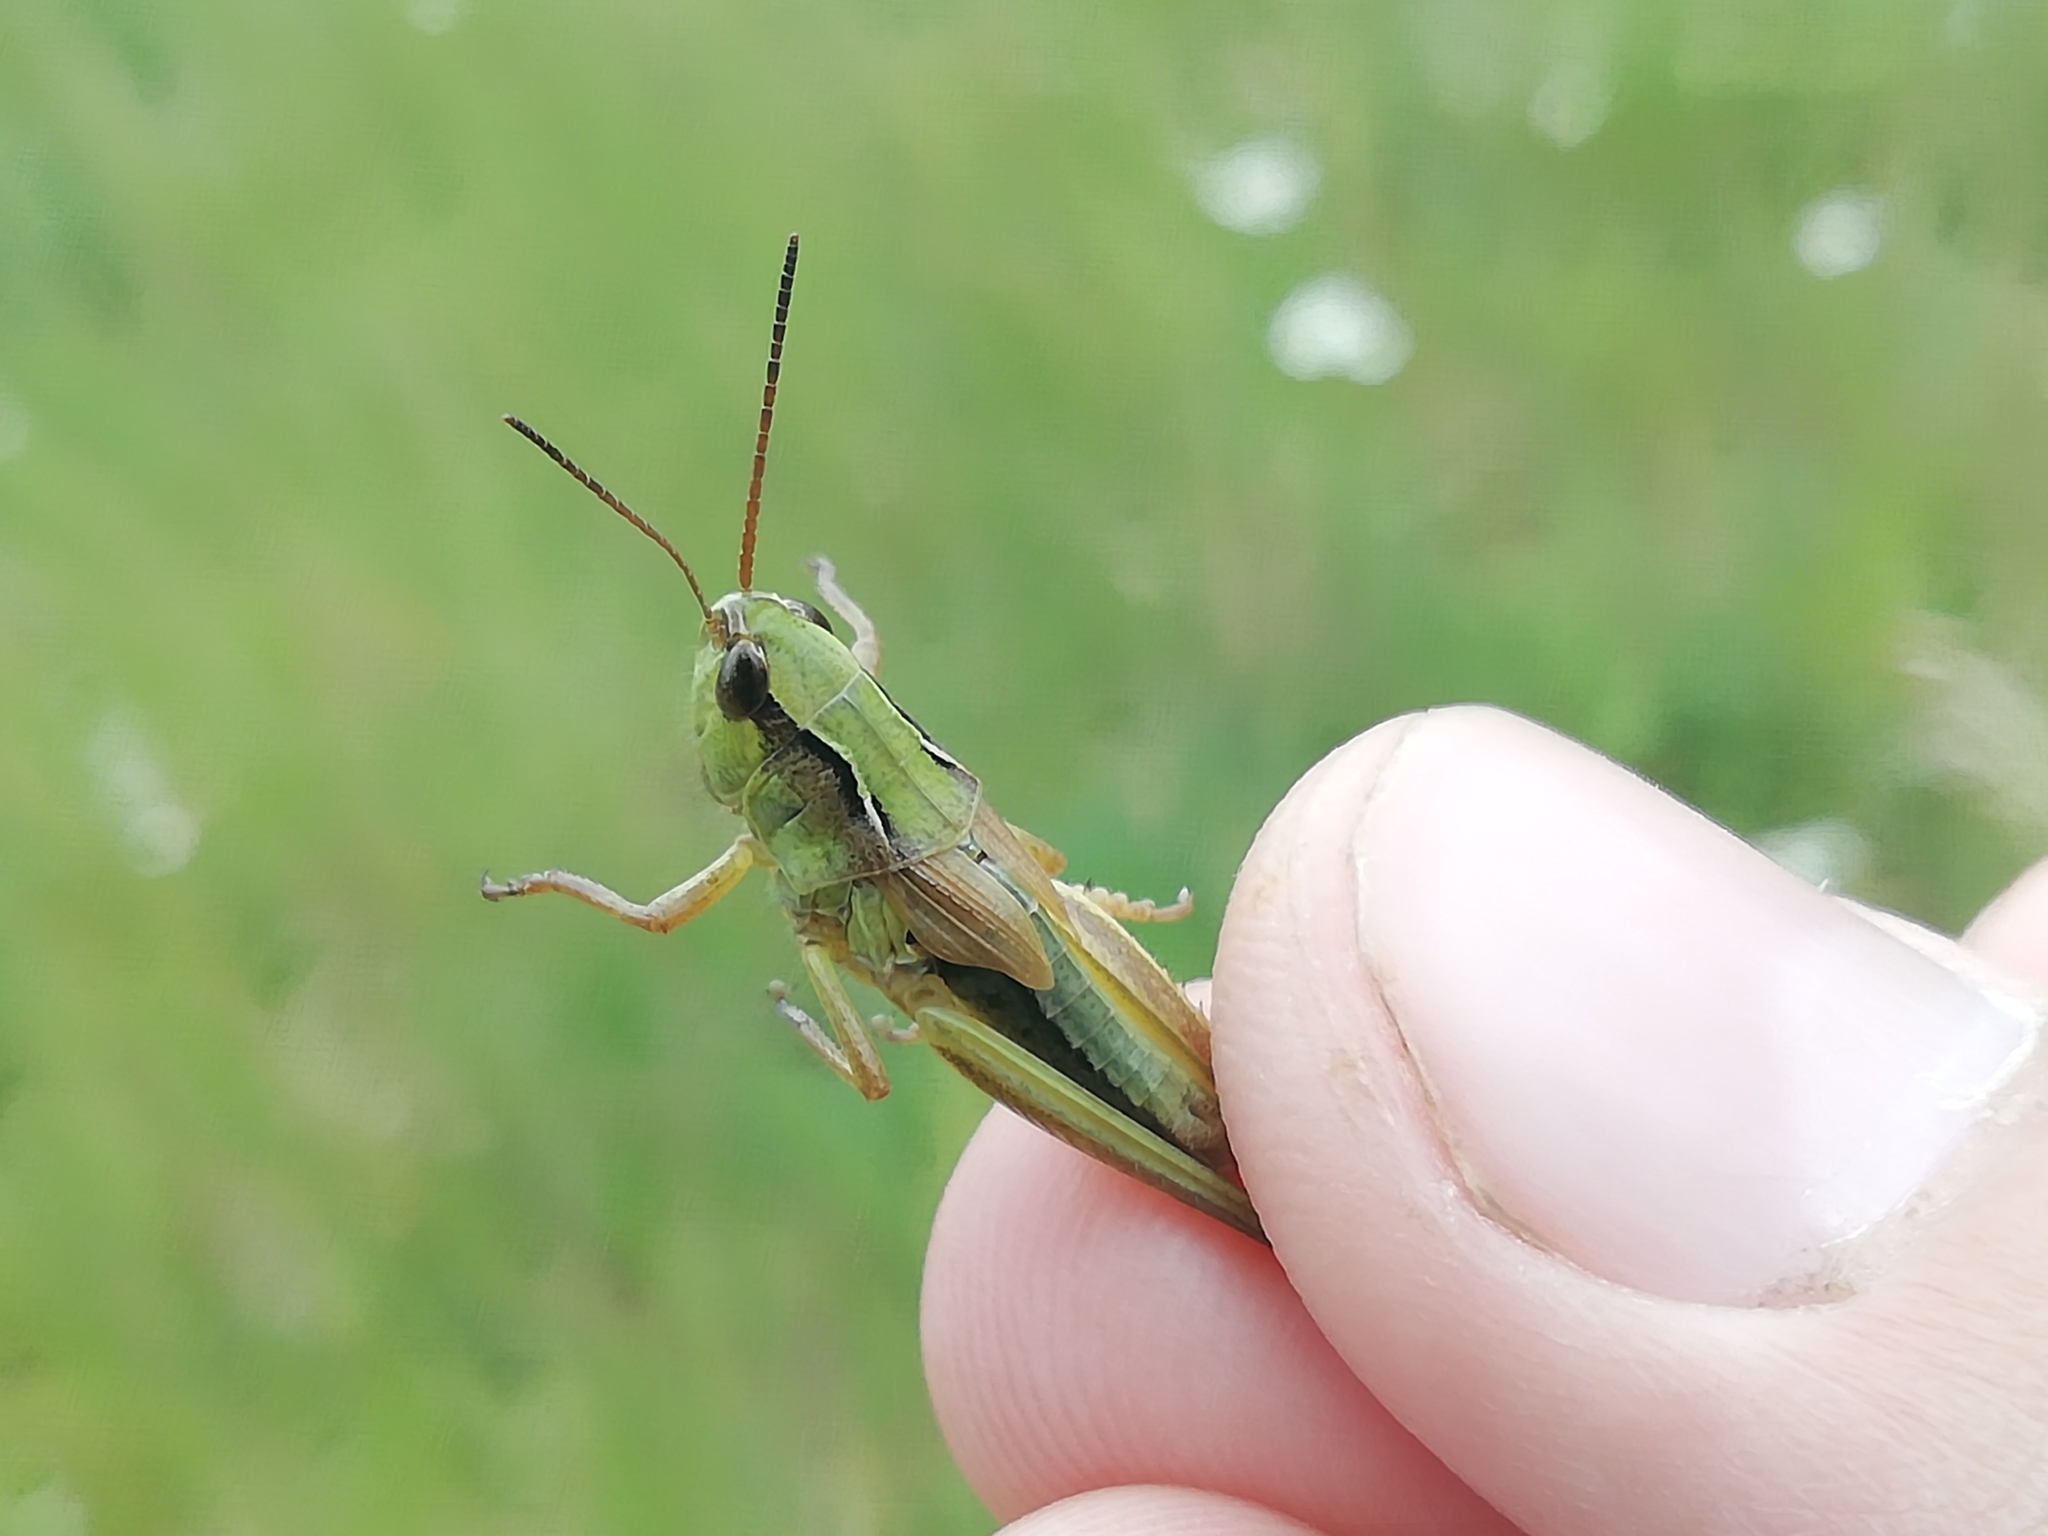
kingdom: Animalia
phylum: Arthropoda
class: Insecta
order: Orthoptera
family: Acrididae
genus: Chorthippus
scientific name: Chorthippus fallax
